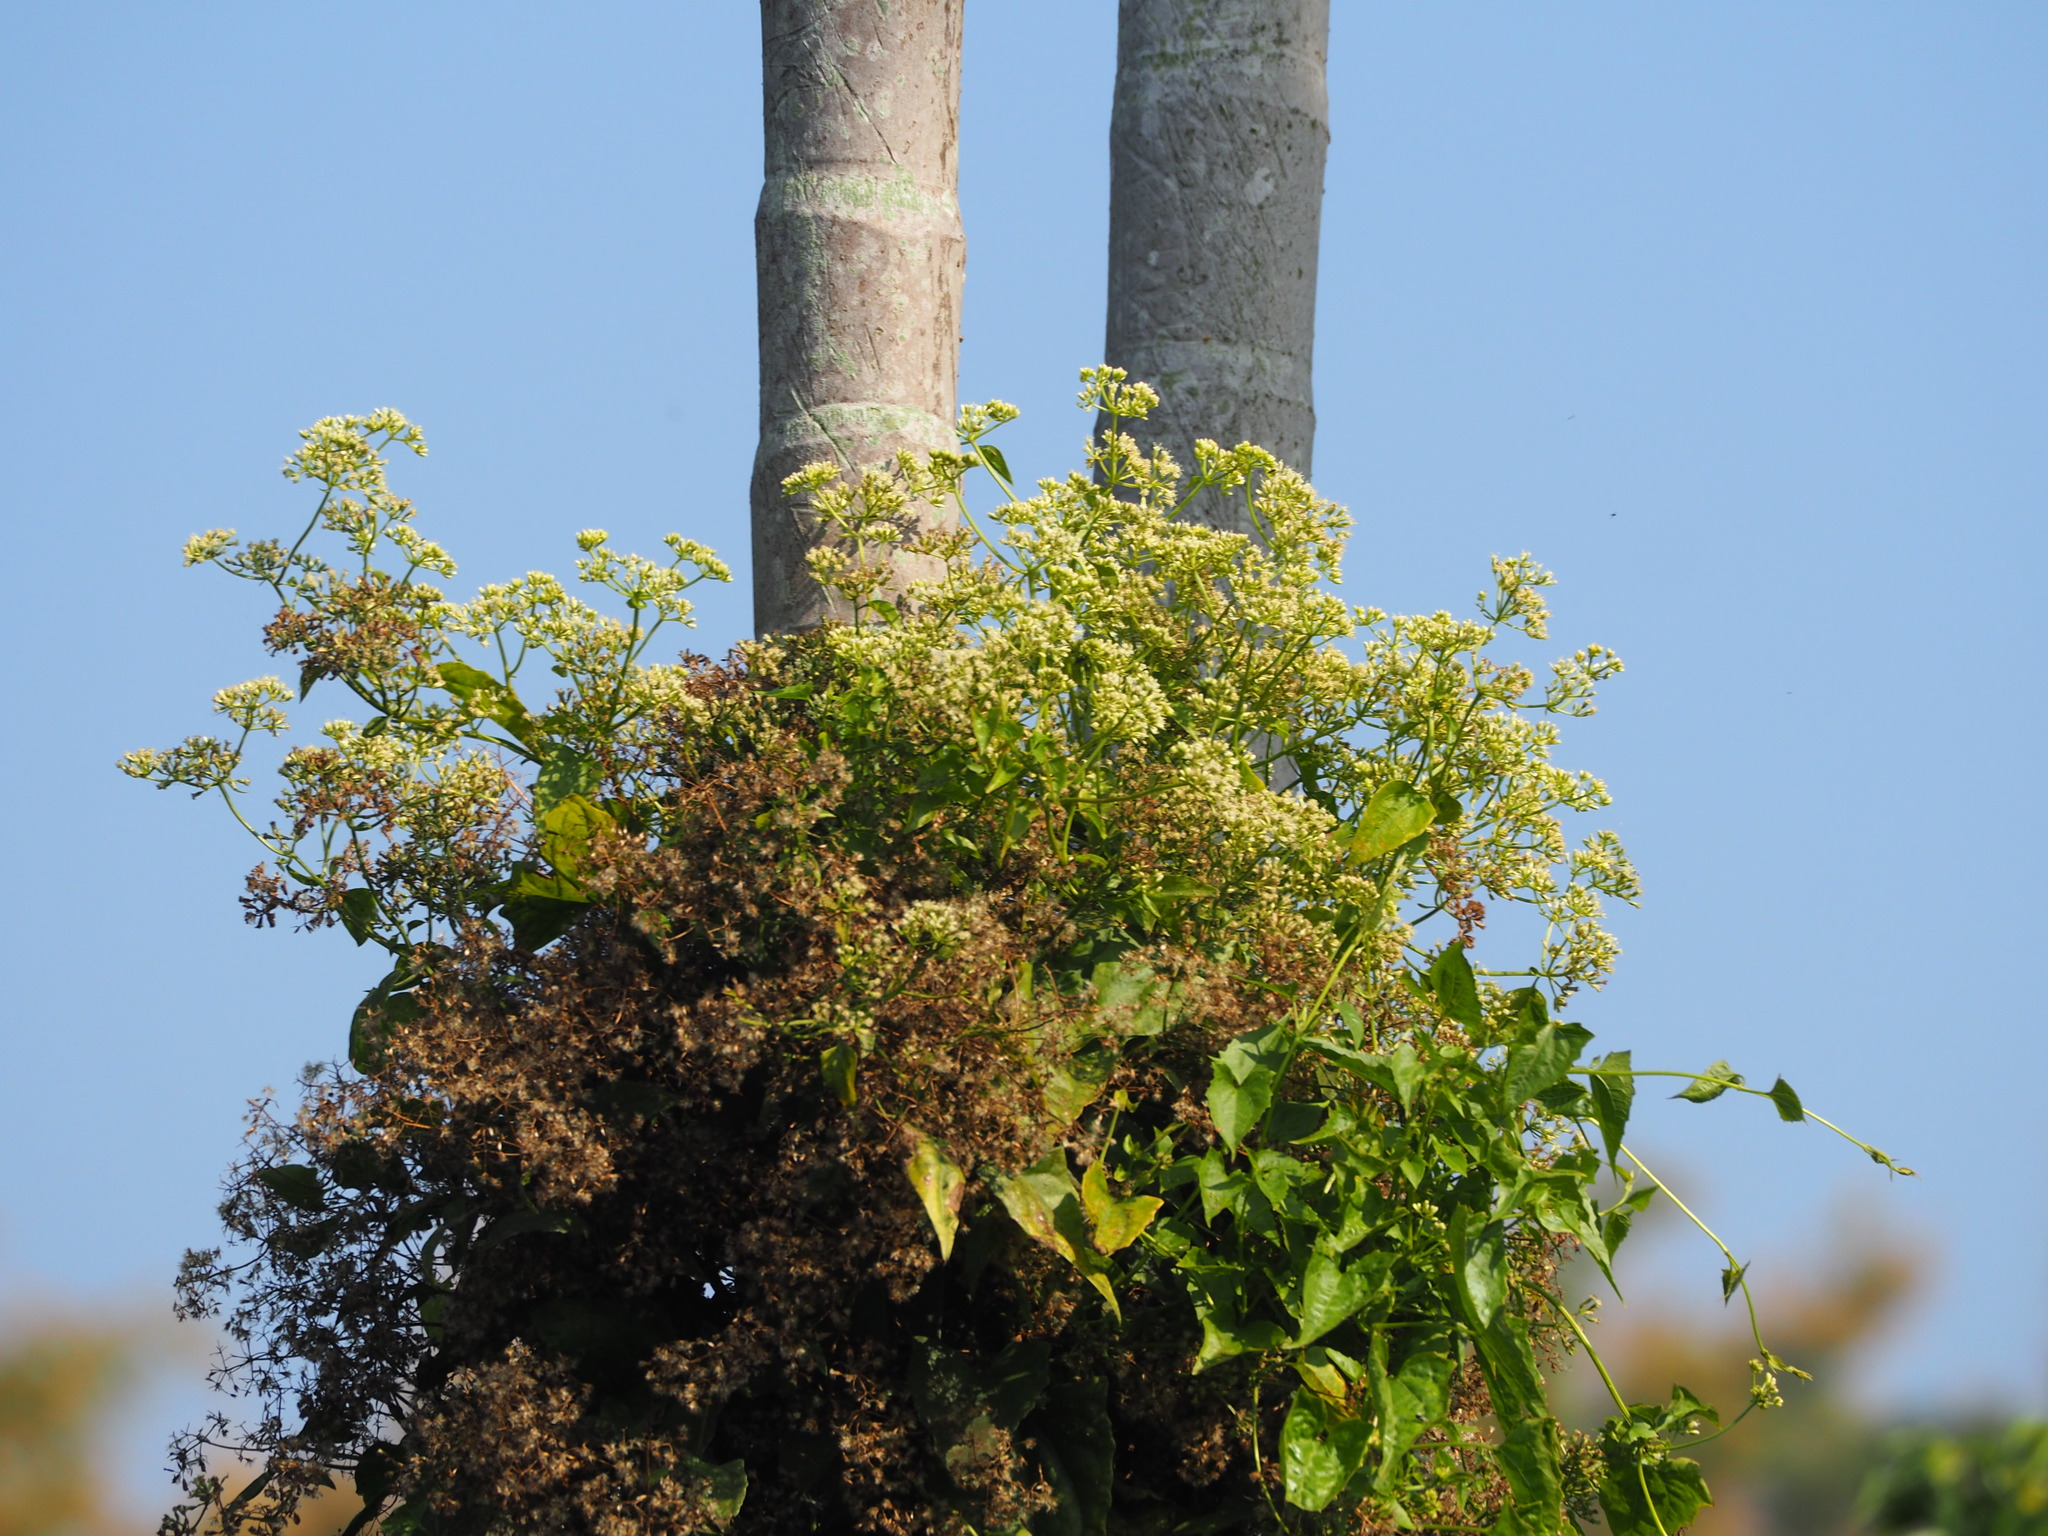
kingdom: Plantae
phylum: Tracheophyta
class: Magnoliopsida
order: Asterales
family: Asteraceae
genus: Mikania
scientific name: Mikania micrantha
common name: Mile-a-minute
